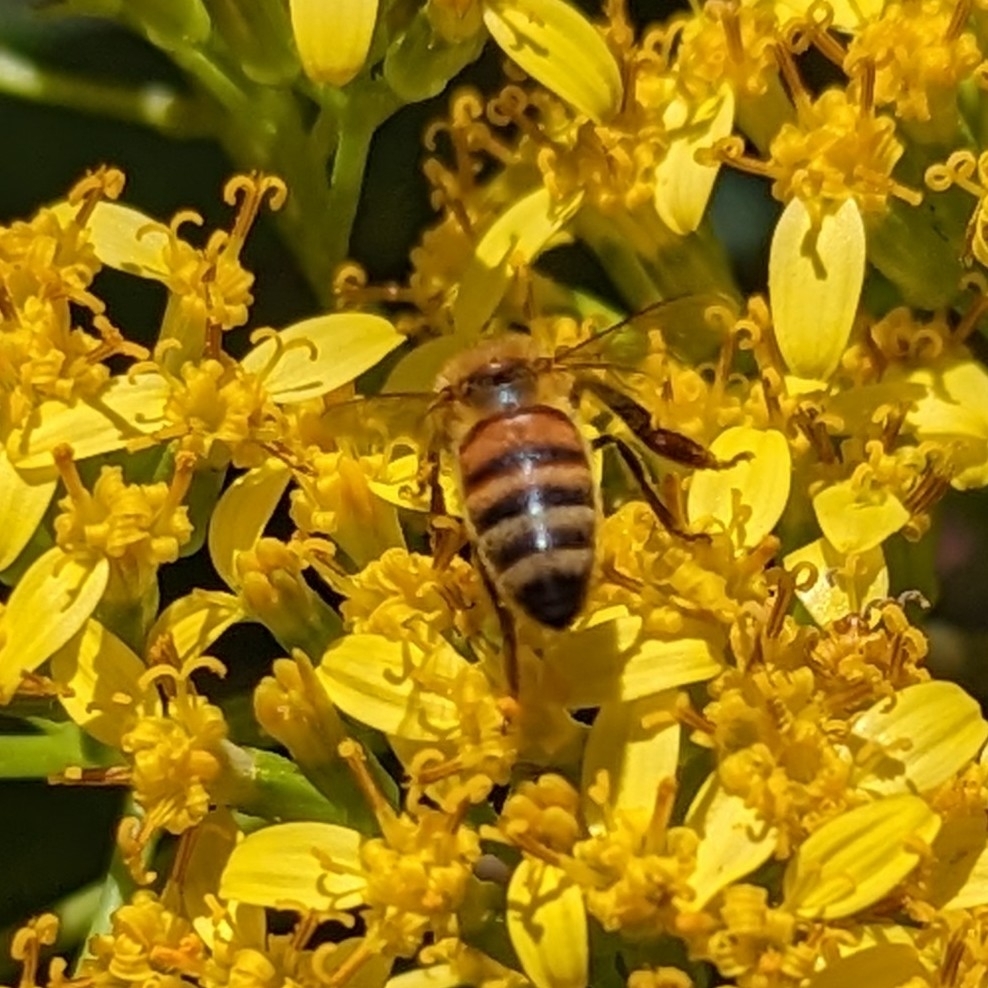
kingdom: Animalia
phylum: Arthropoda
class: Insecta
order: Hymenoptera
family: Apidae
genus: Apis
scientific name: Apis mellifera
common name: Honey bee
